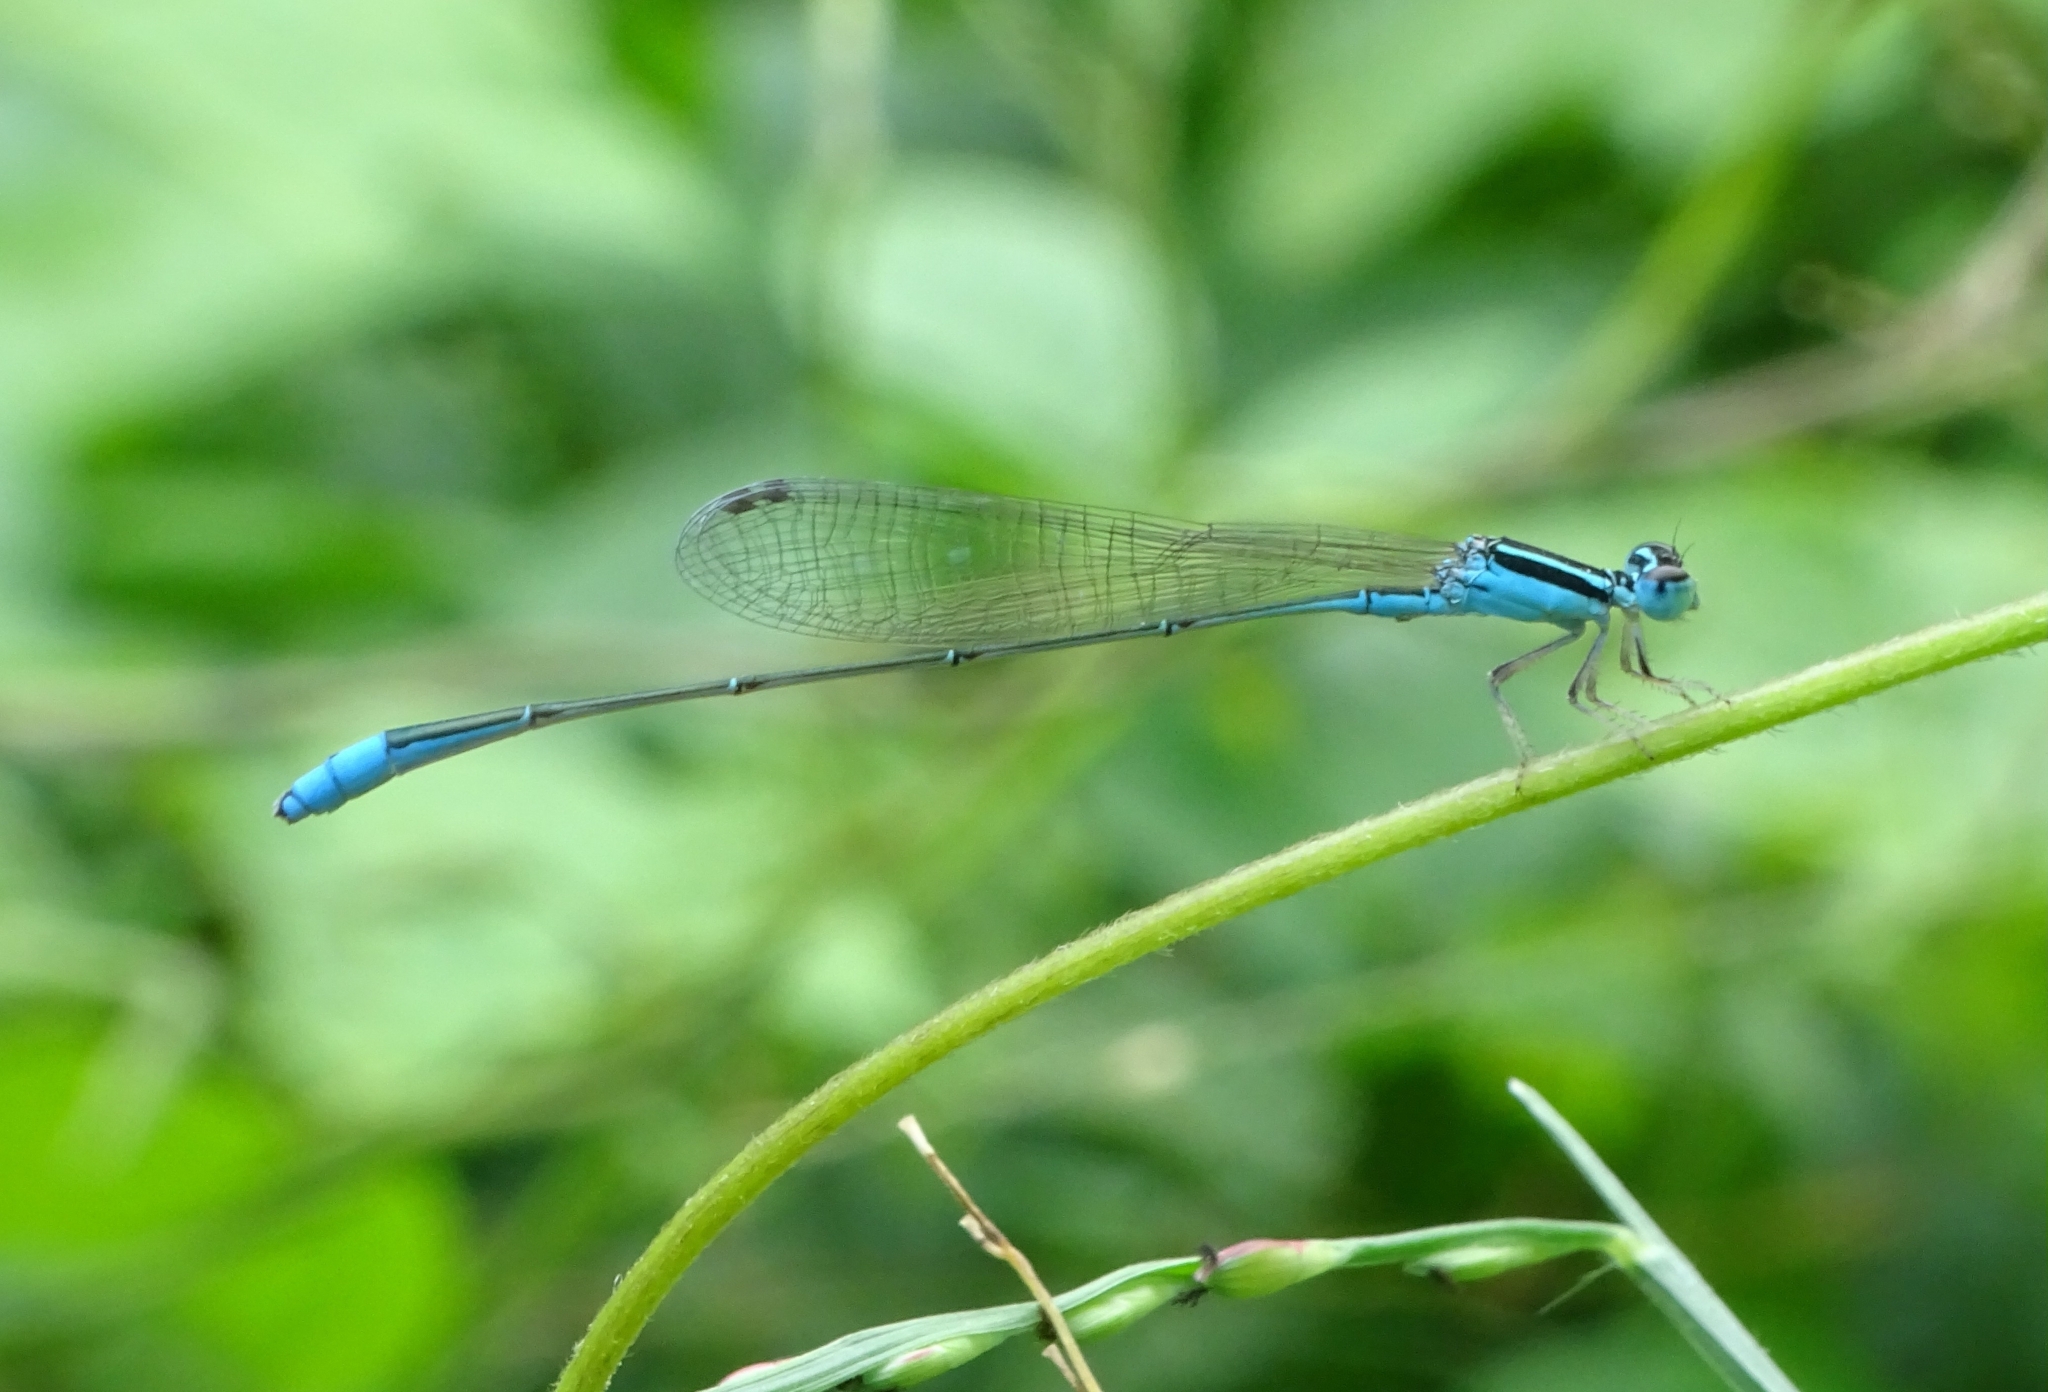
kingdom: Animalia
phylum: Arthropoda
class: Insecta
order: Odonata
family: Coenagrionidae
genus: Aciagrion
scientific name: Aciagrion occidentale
